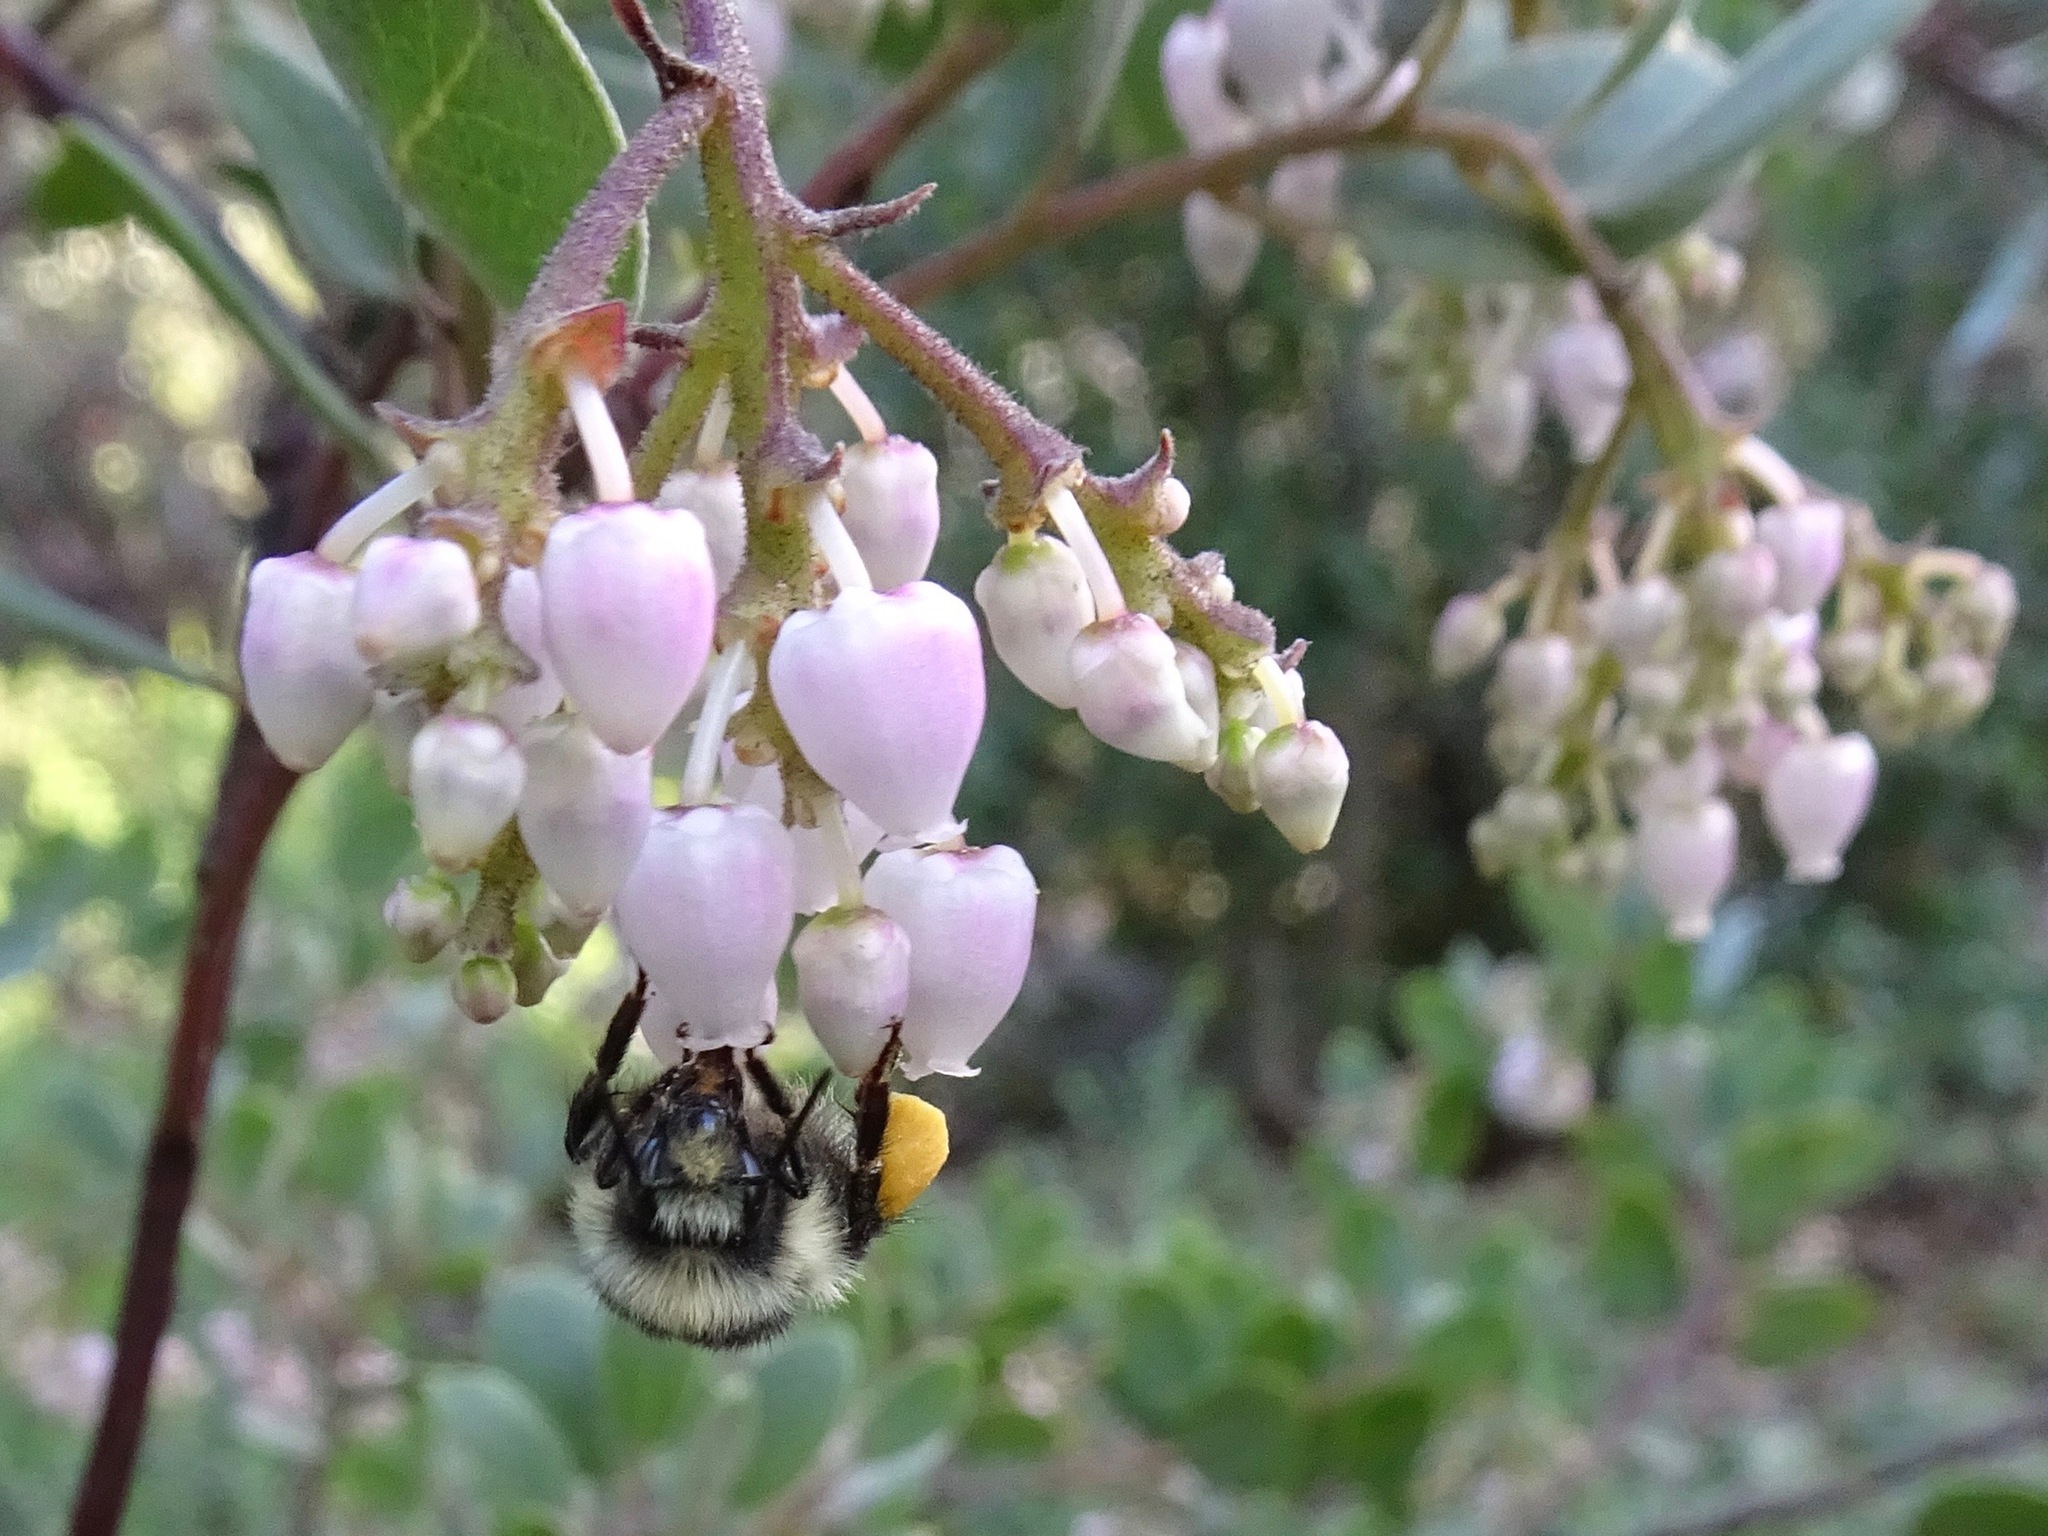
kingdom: Animalia
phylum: Arthropoda
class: Insecta
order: Hymenoptera
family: Apidae
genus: Bombus
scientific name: Bombus melanopygus
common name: Black tail bumble bee
